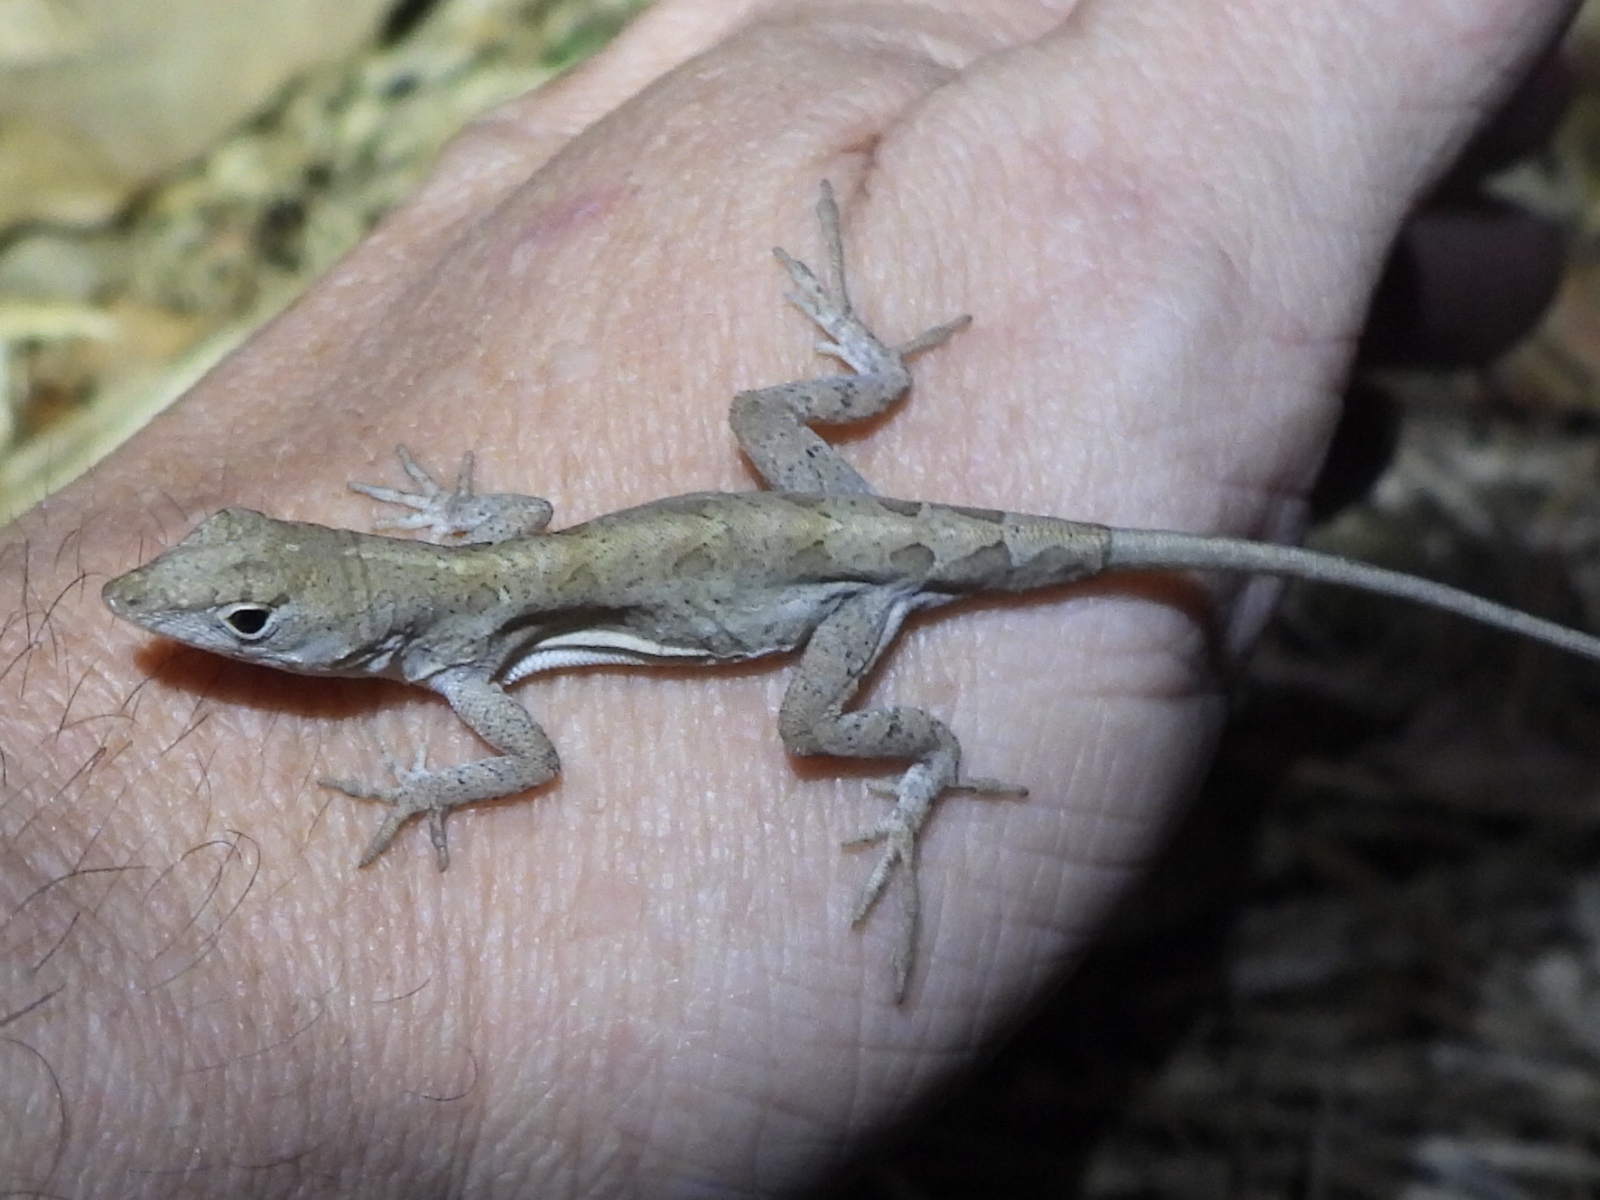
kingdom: Animalia
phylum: Chordata
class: Squamata
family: Dactyloidae
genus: Anolis
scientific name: Anolis sagrei
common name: Brown anole
